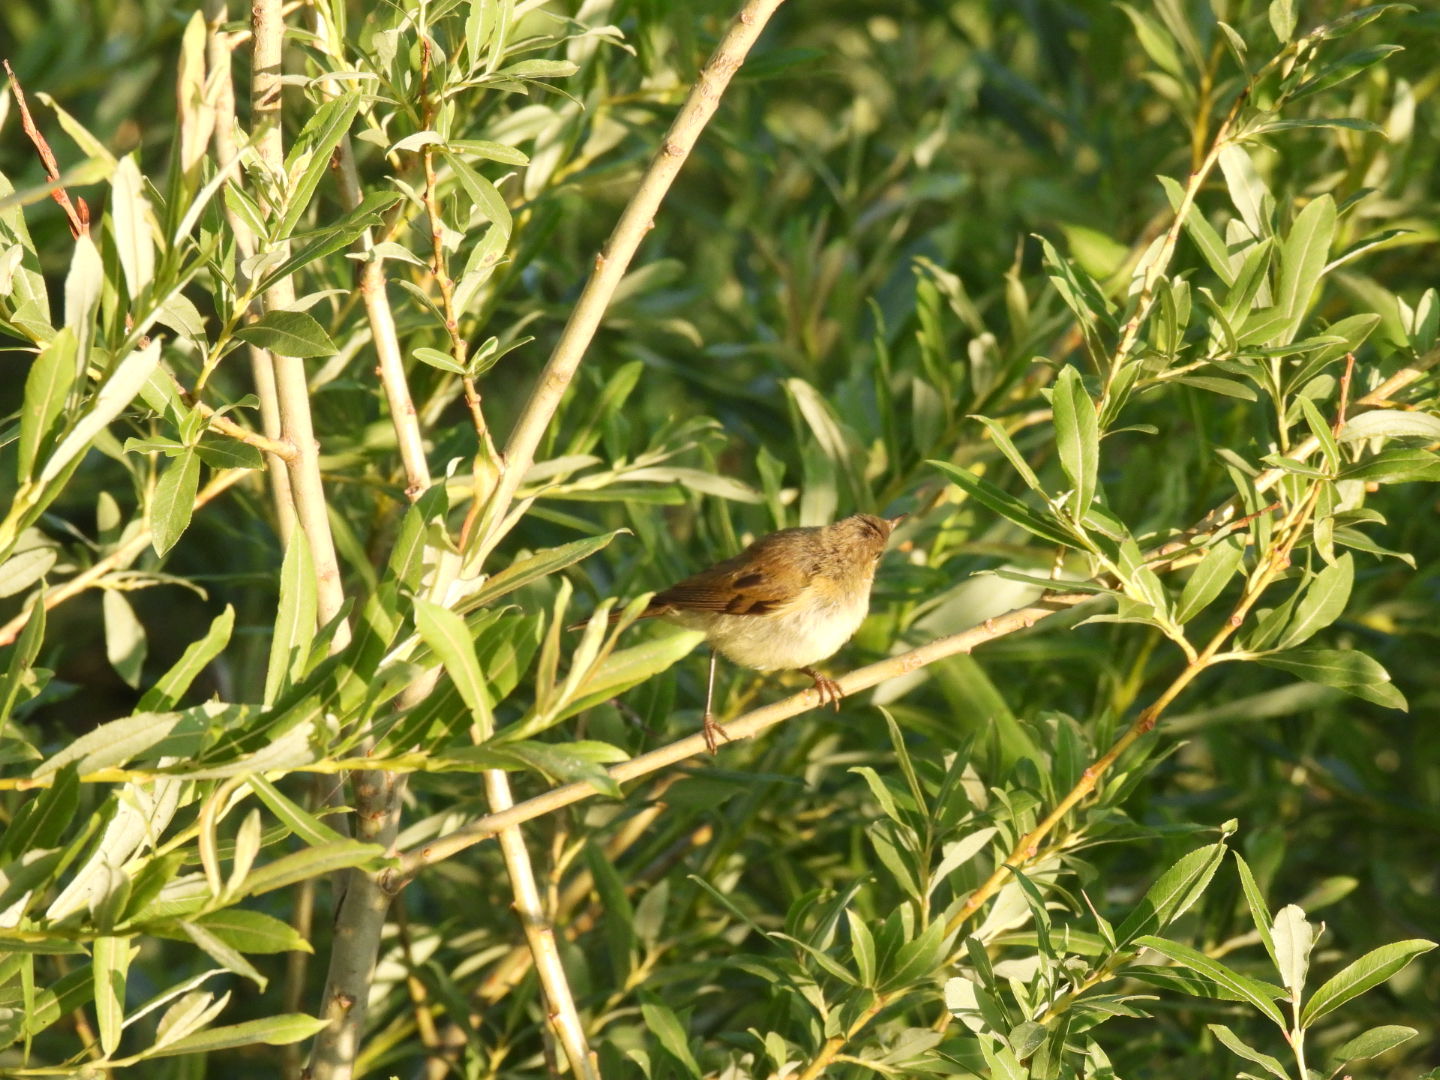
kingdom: Animalia
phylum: Chordata
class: Aves
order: Passeriformes
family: Phylloscopidae
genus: Phylloscopus
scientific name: Phylloscopus collybita
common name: Common chiffchaff
